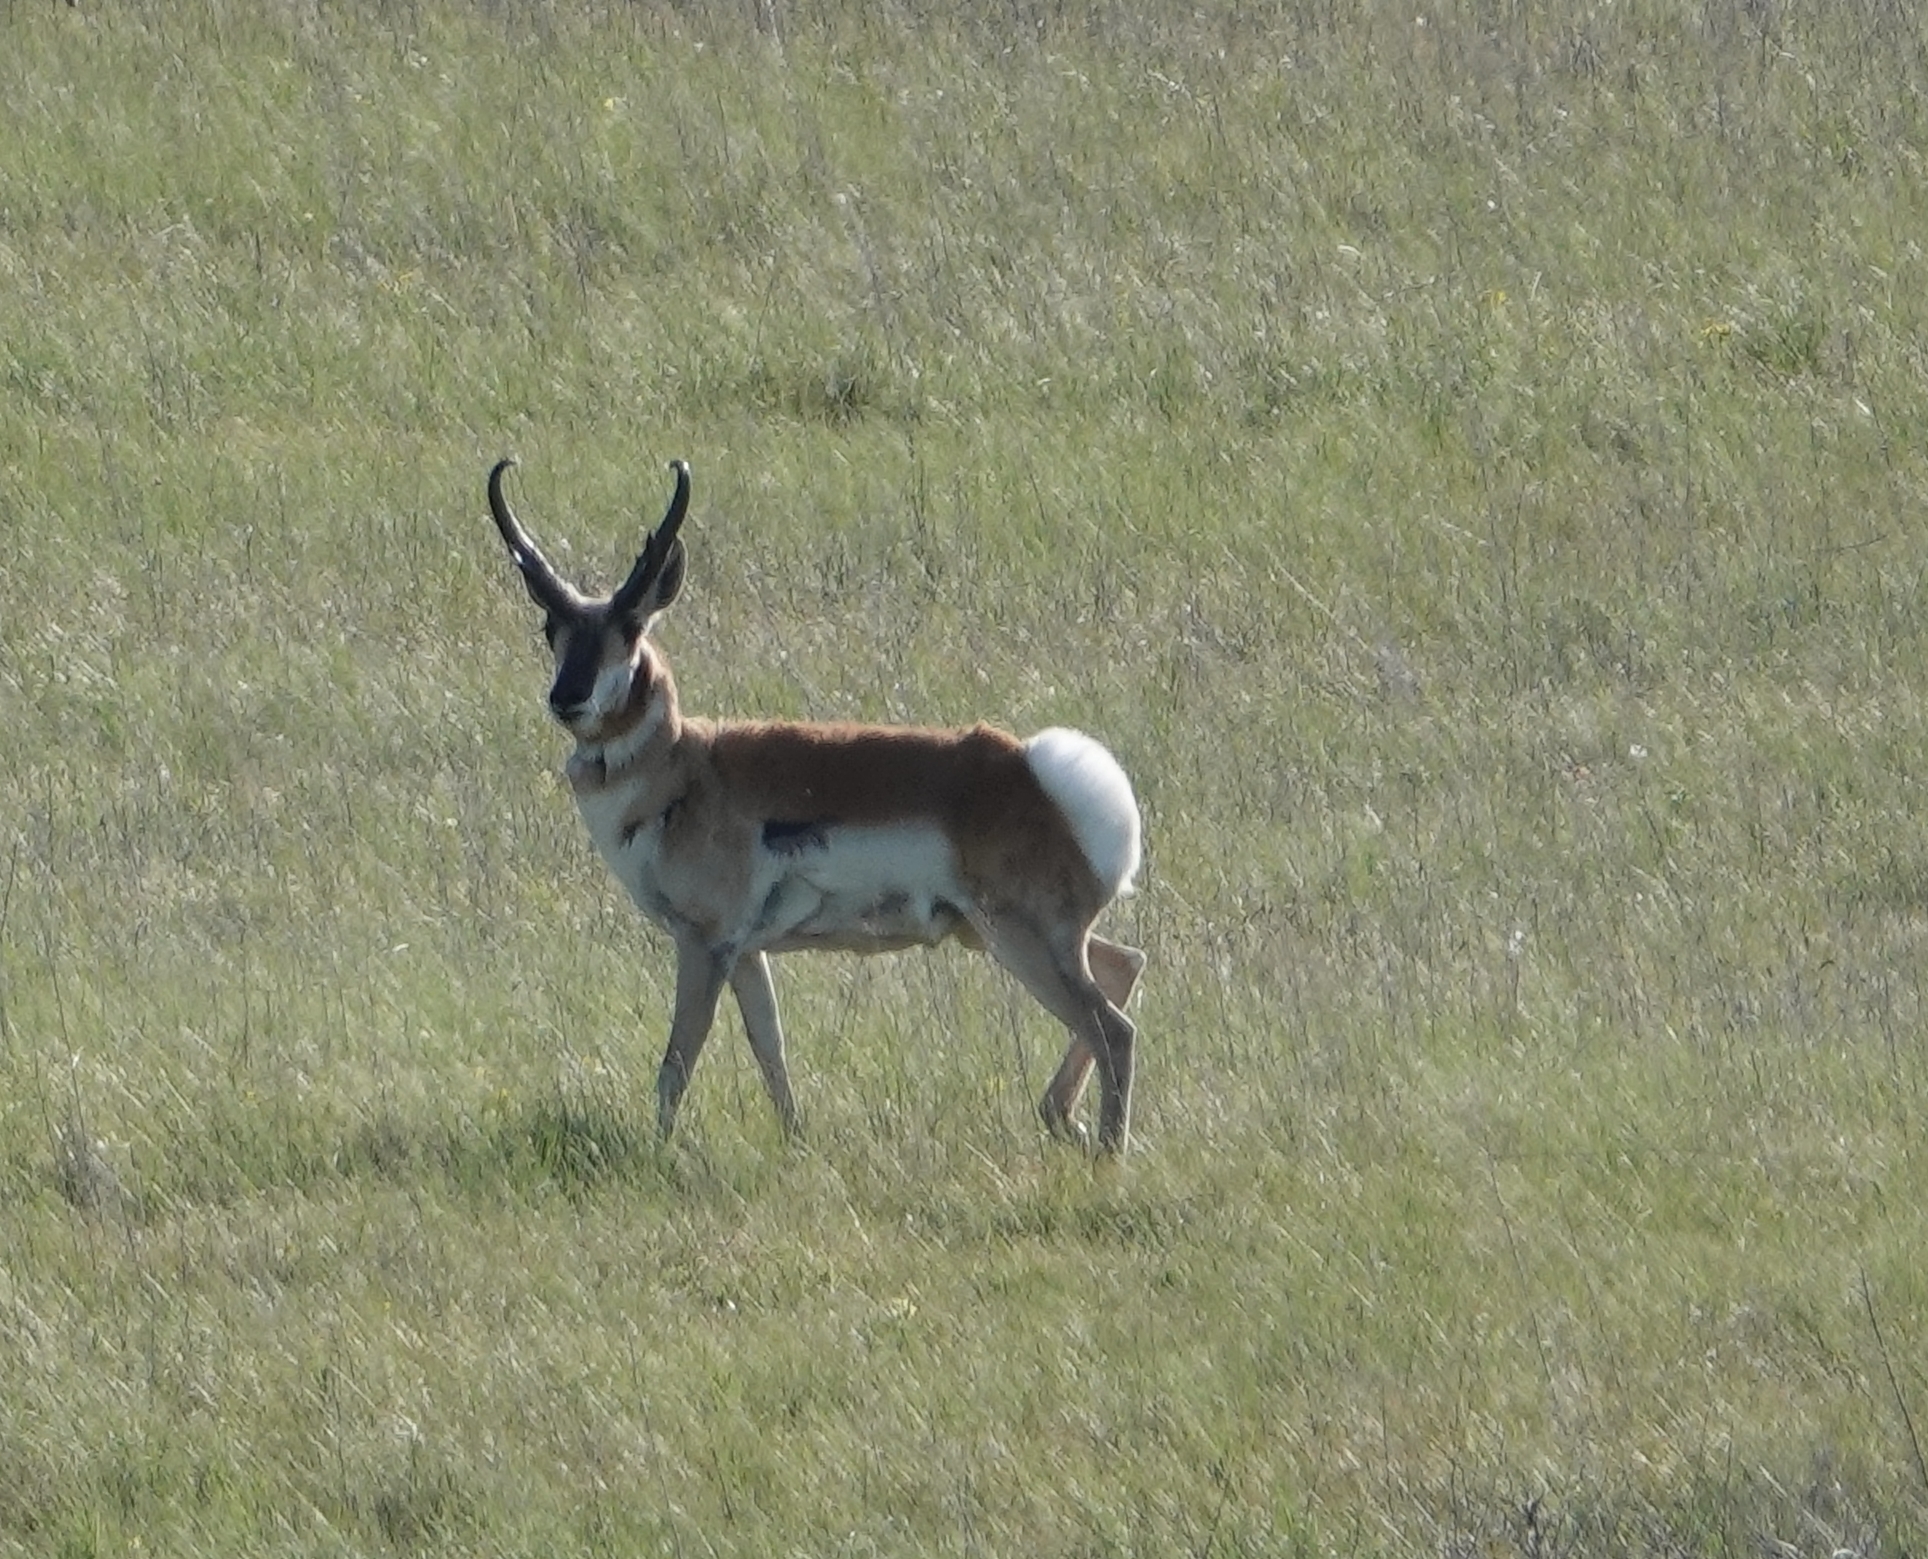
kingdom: Animalia
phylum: Chordata
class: Mammalia
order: Artiodactyla
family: Antilocapridae
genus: Antilocapra
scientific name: Antilocapra americana
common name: Pronghorn
